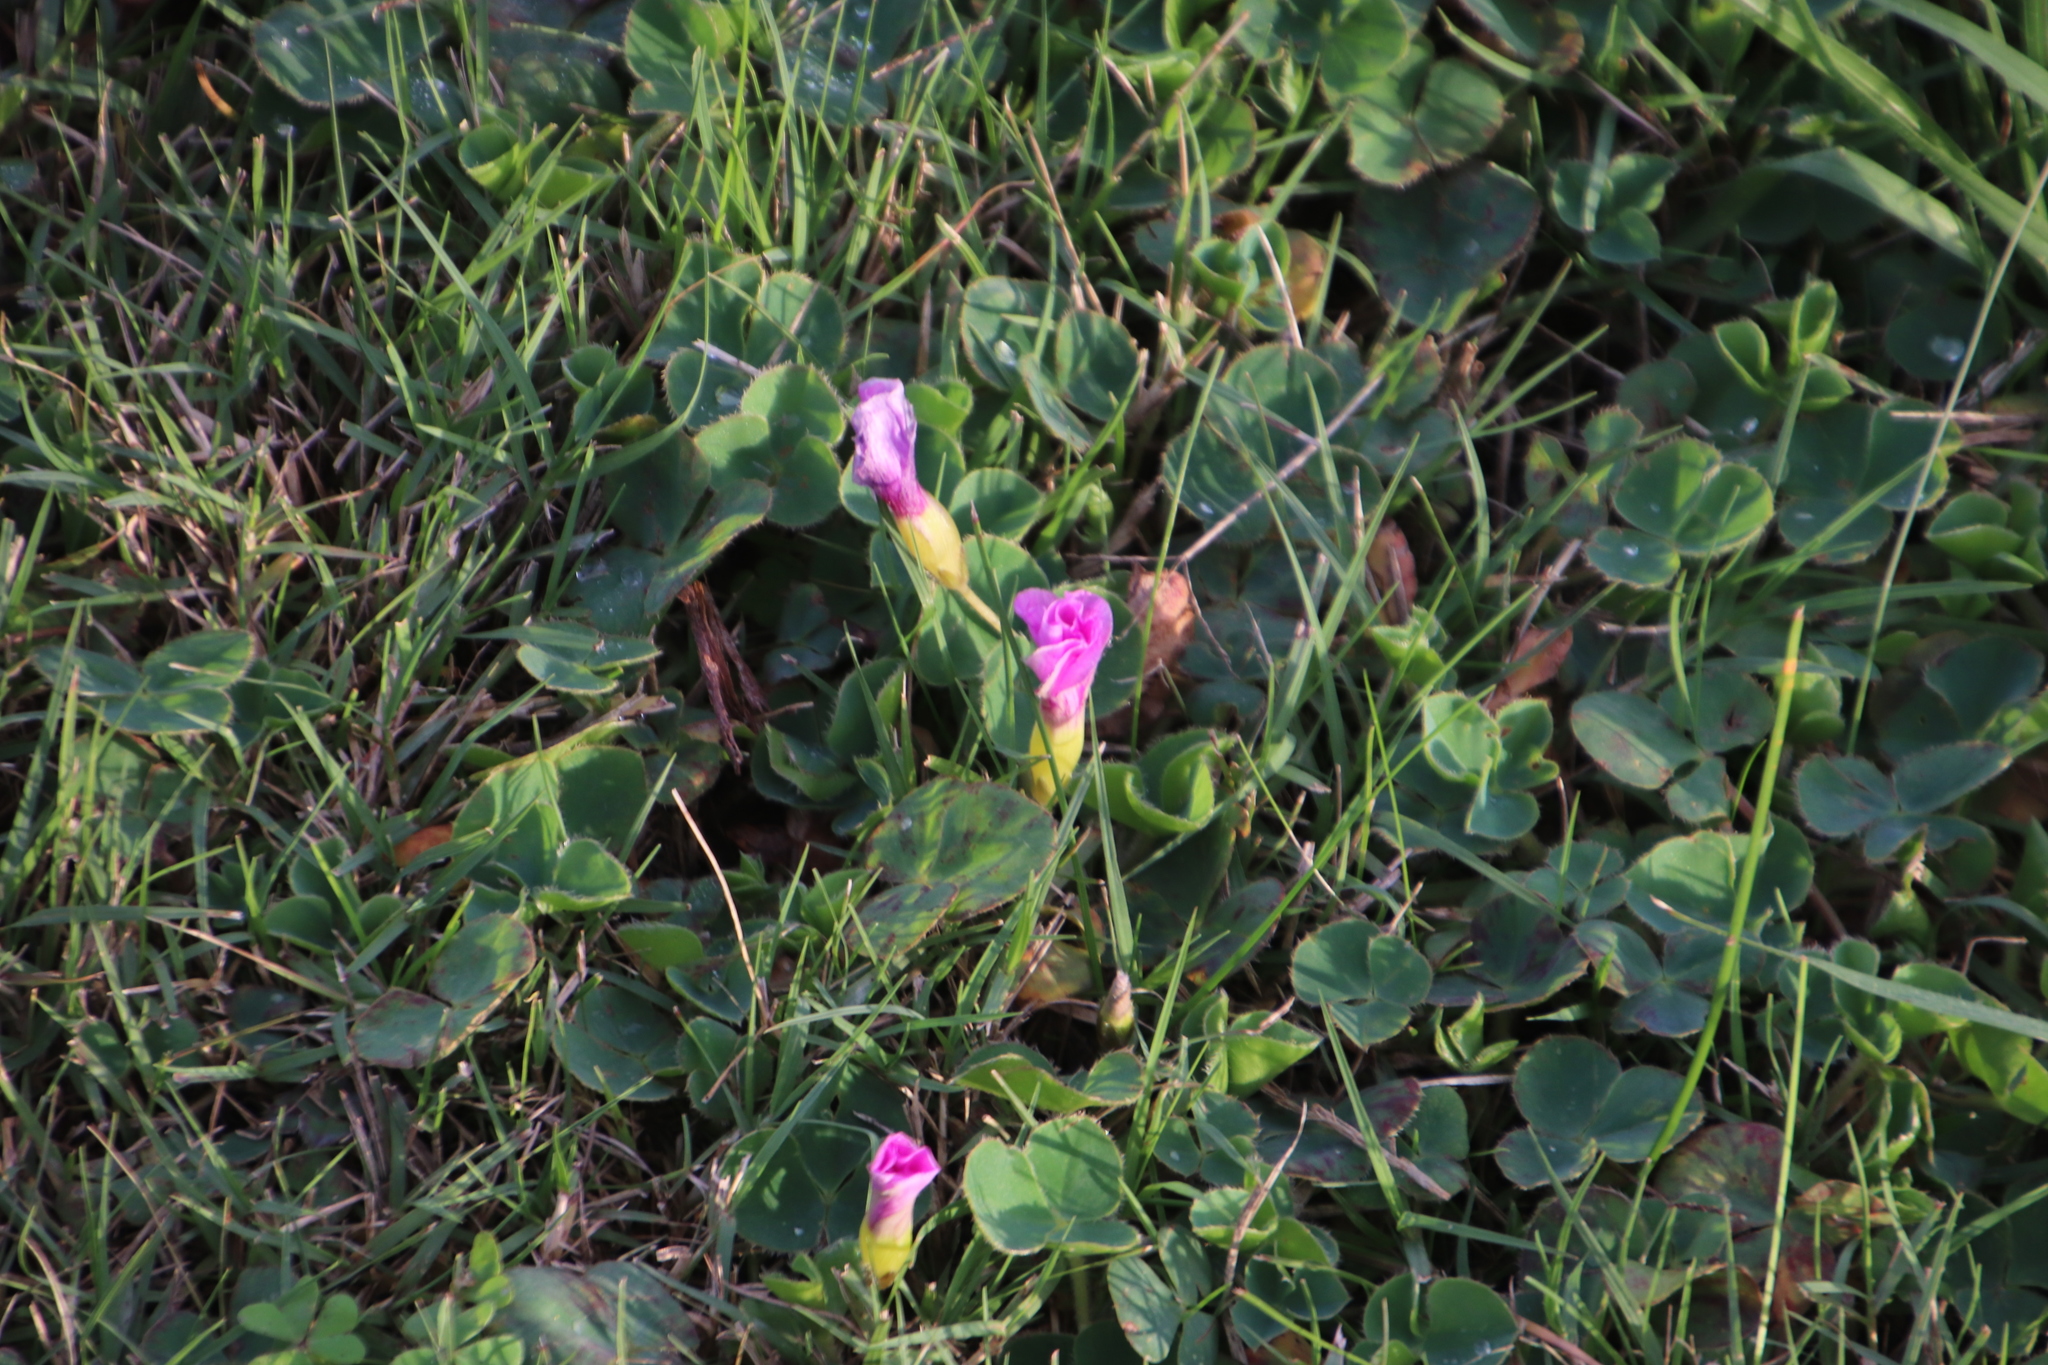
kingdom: Plantae
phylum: Tracheophyta
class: Magnoliopsida
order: Oxalidales
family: Oxalidaceae
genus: Oxalis
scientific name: Oxalis purpurea
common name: Purple woodsorrel
